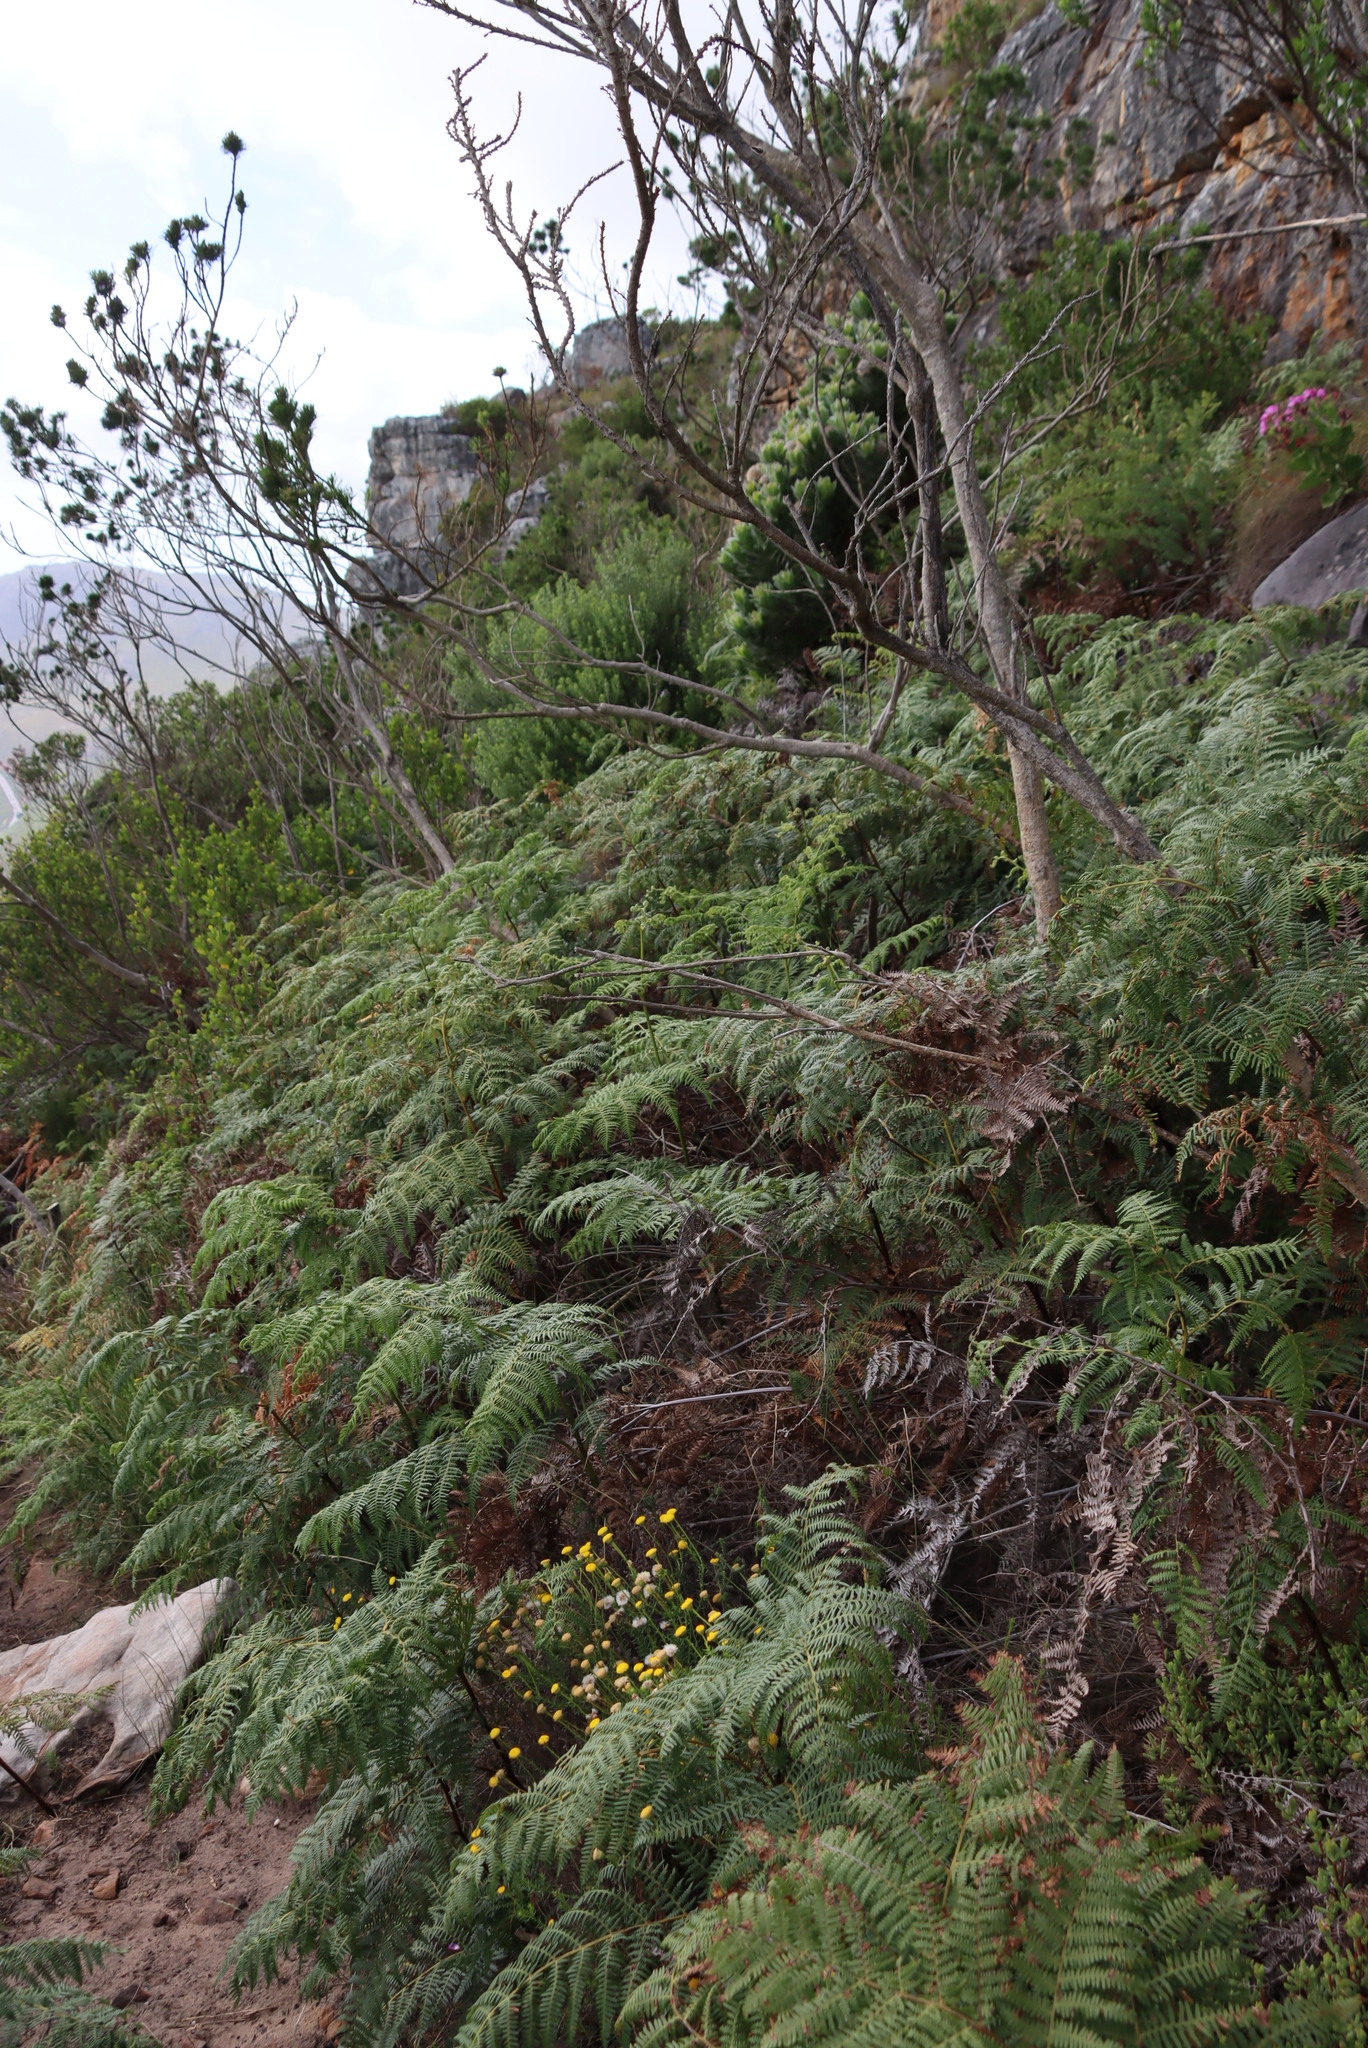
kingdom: Plantae
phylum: Tracheophyta
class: Polypodiopsida
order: Polypodiales
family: Dennstaedtiaceae
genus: Pteridium
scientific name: Pteridium aquilinum
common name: Bracken
